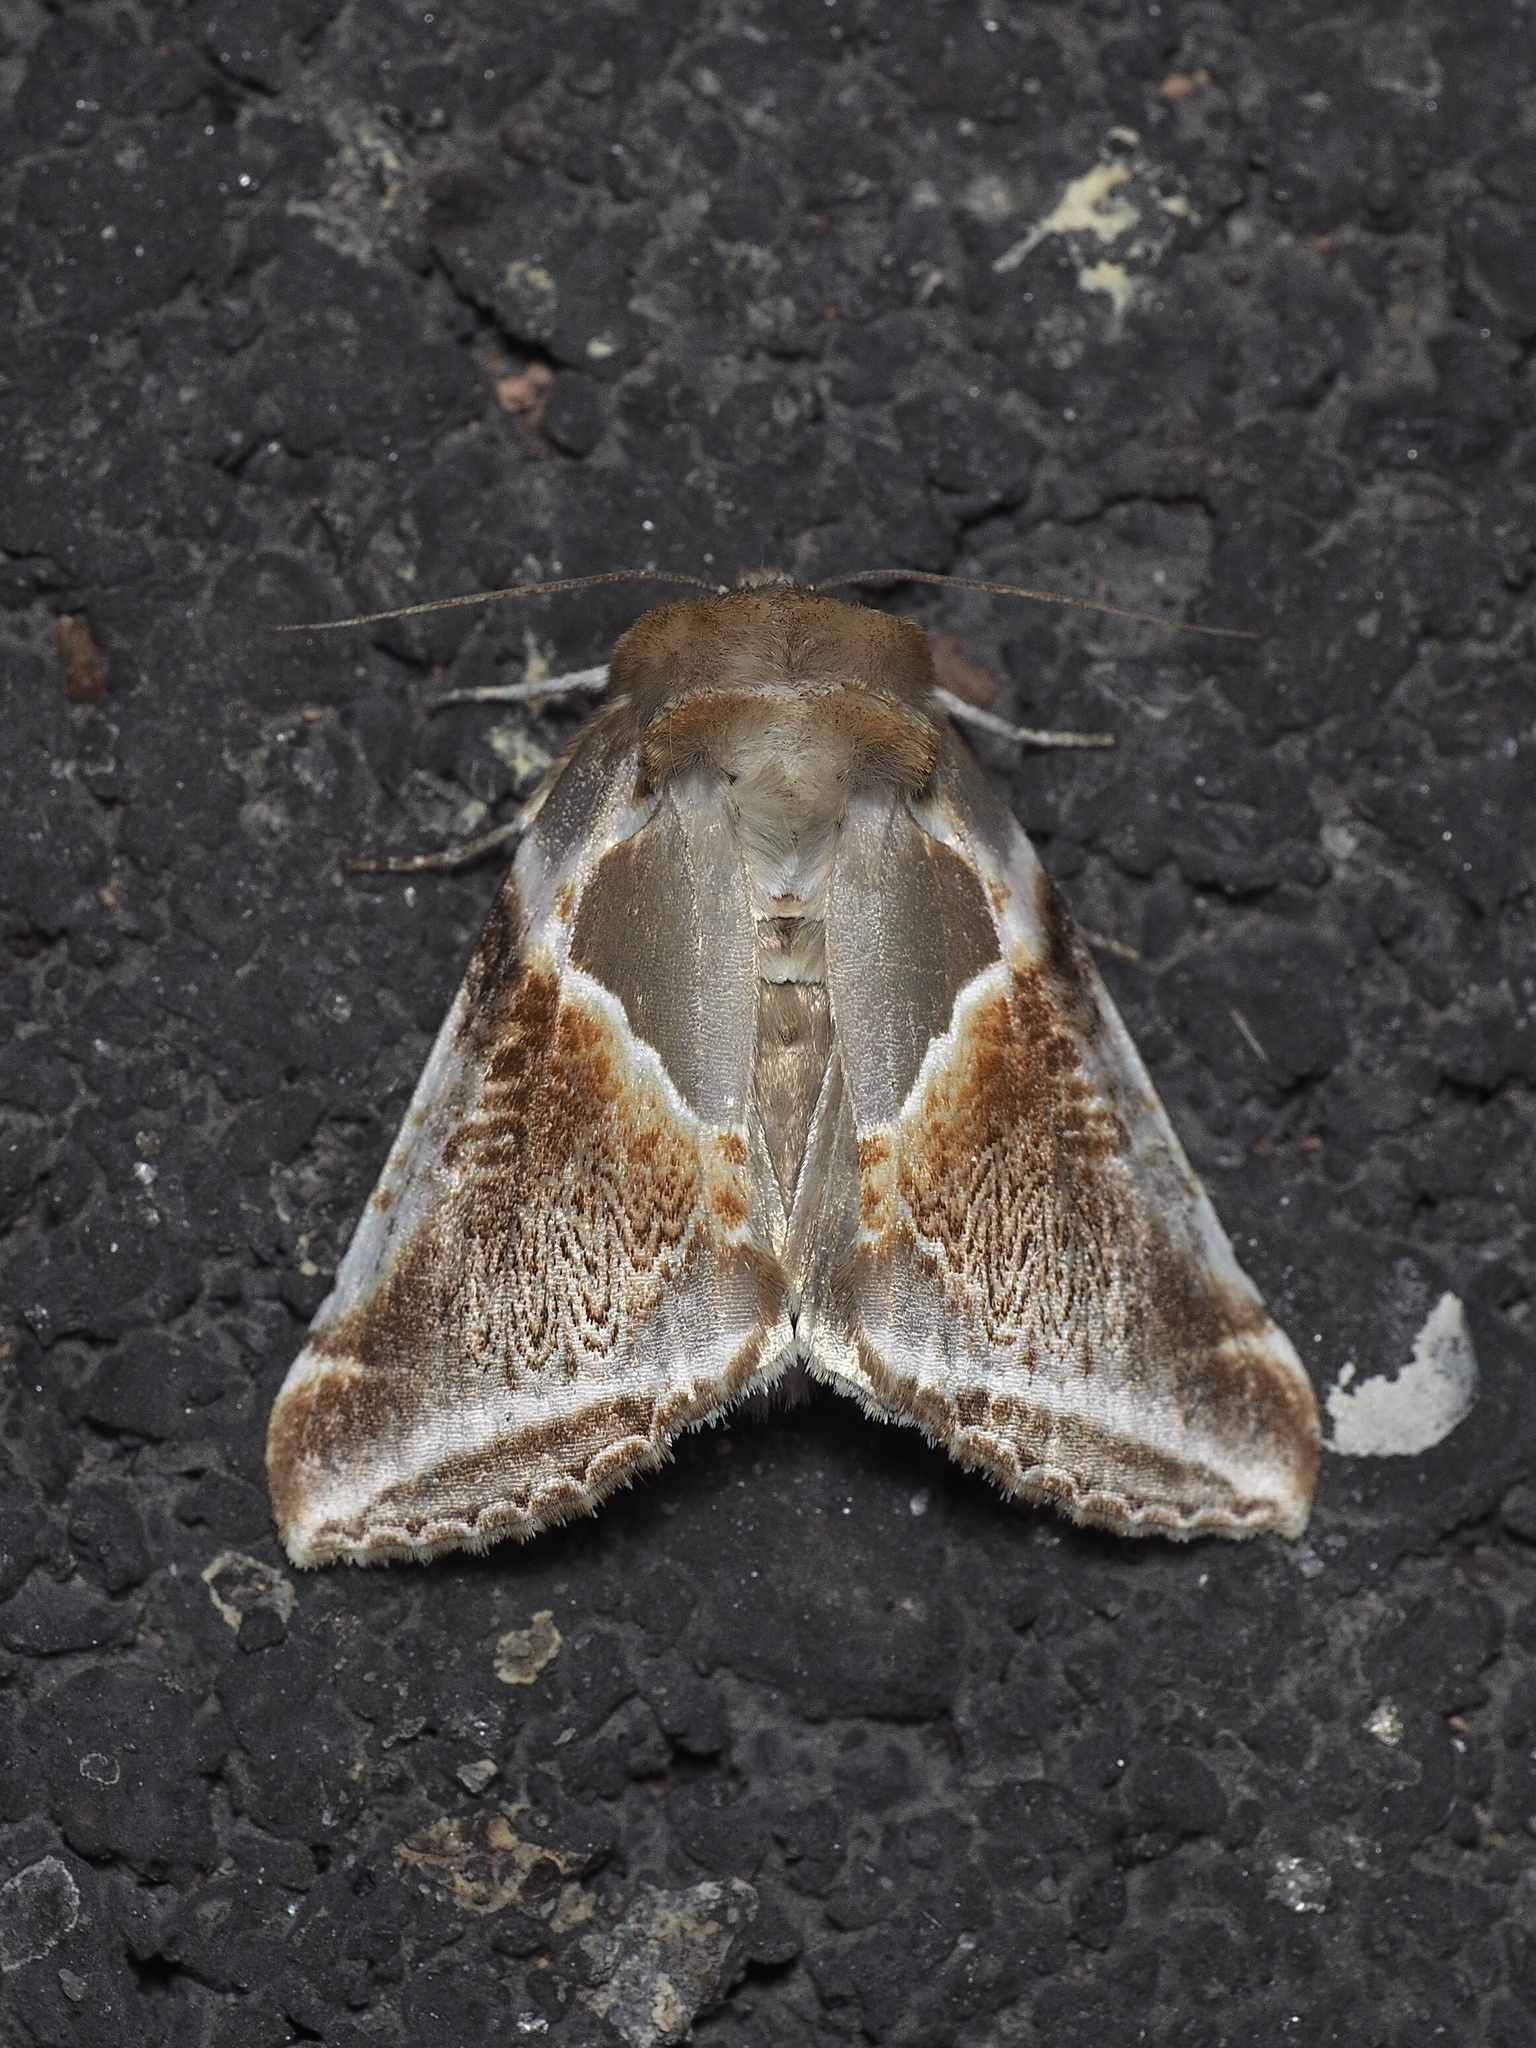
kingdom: Animalia
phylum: Arthropoda
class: Insecta
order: Lepidoptera
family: Drepanidae
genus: Habrosyne
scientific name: Habrosyne pyritoides
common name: Buff arches
